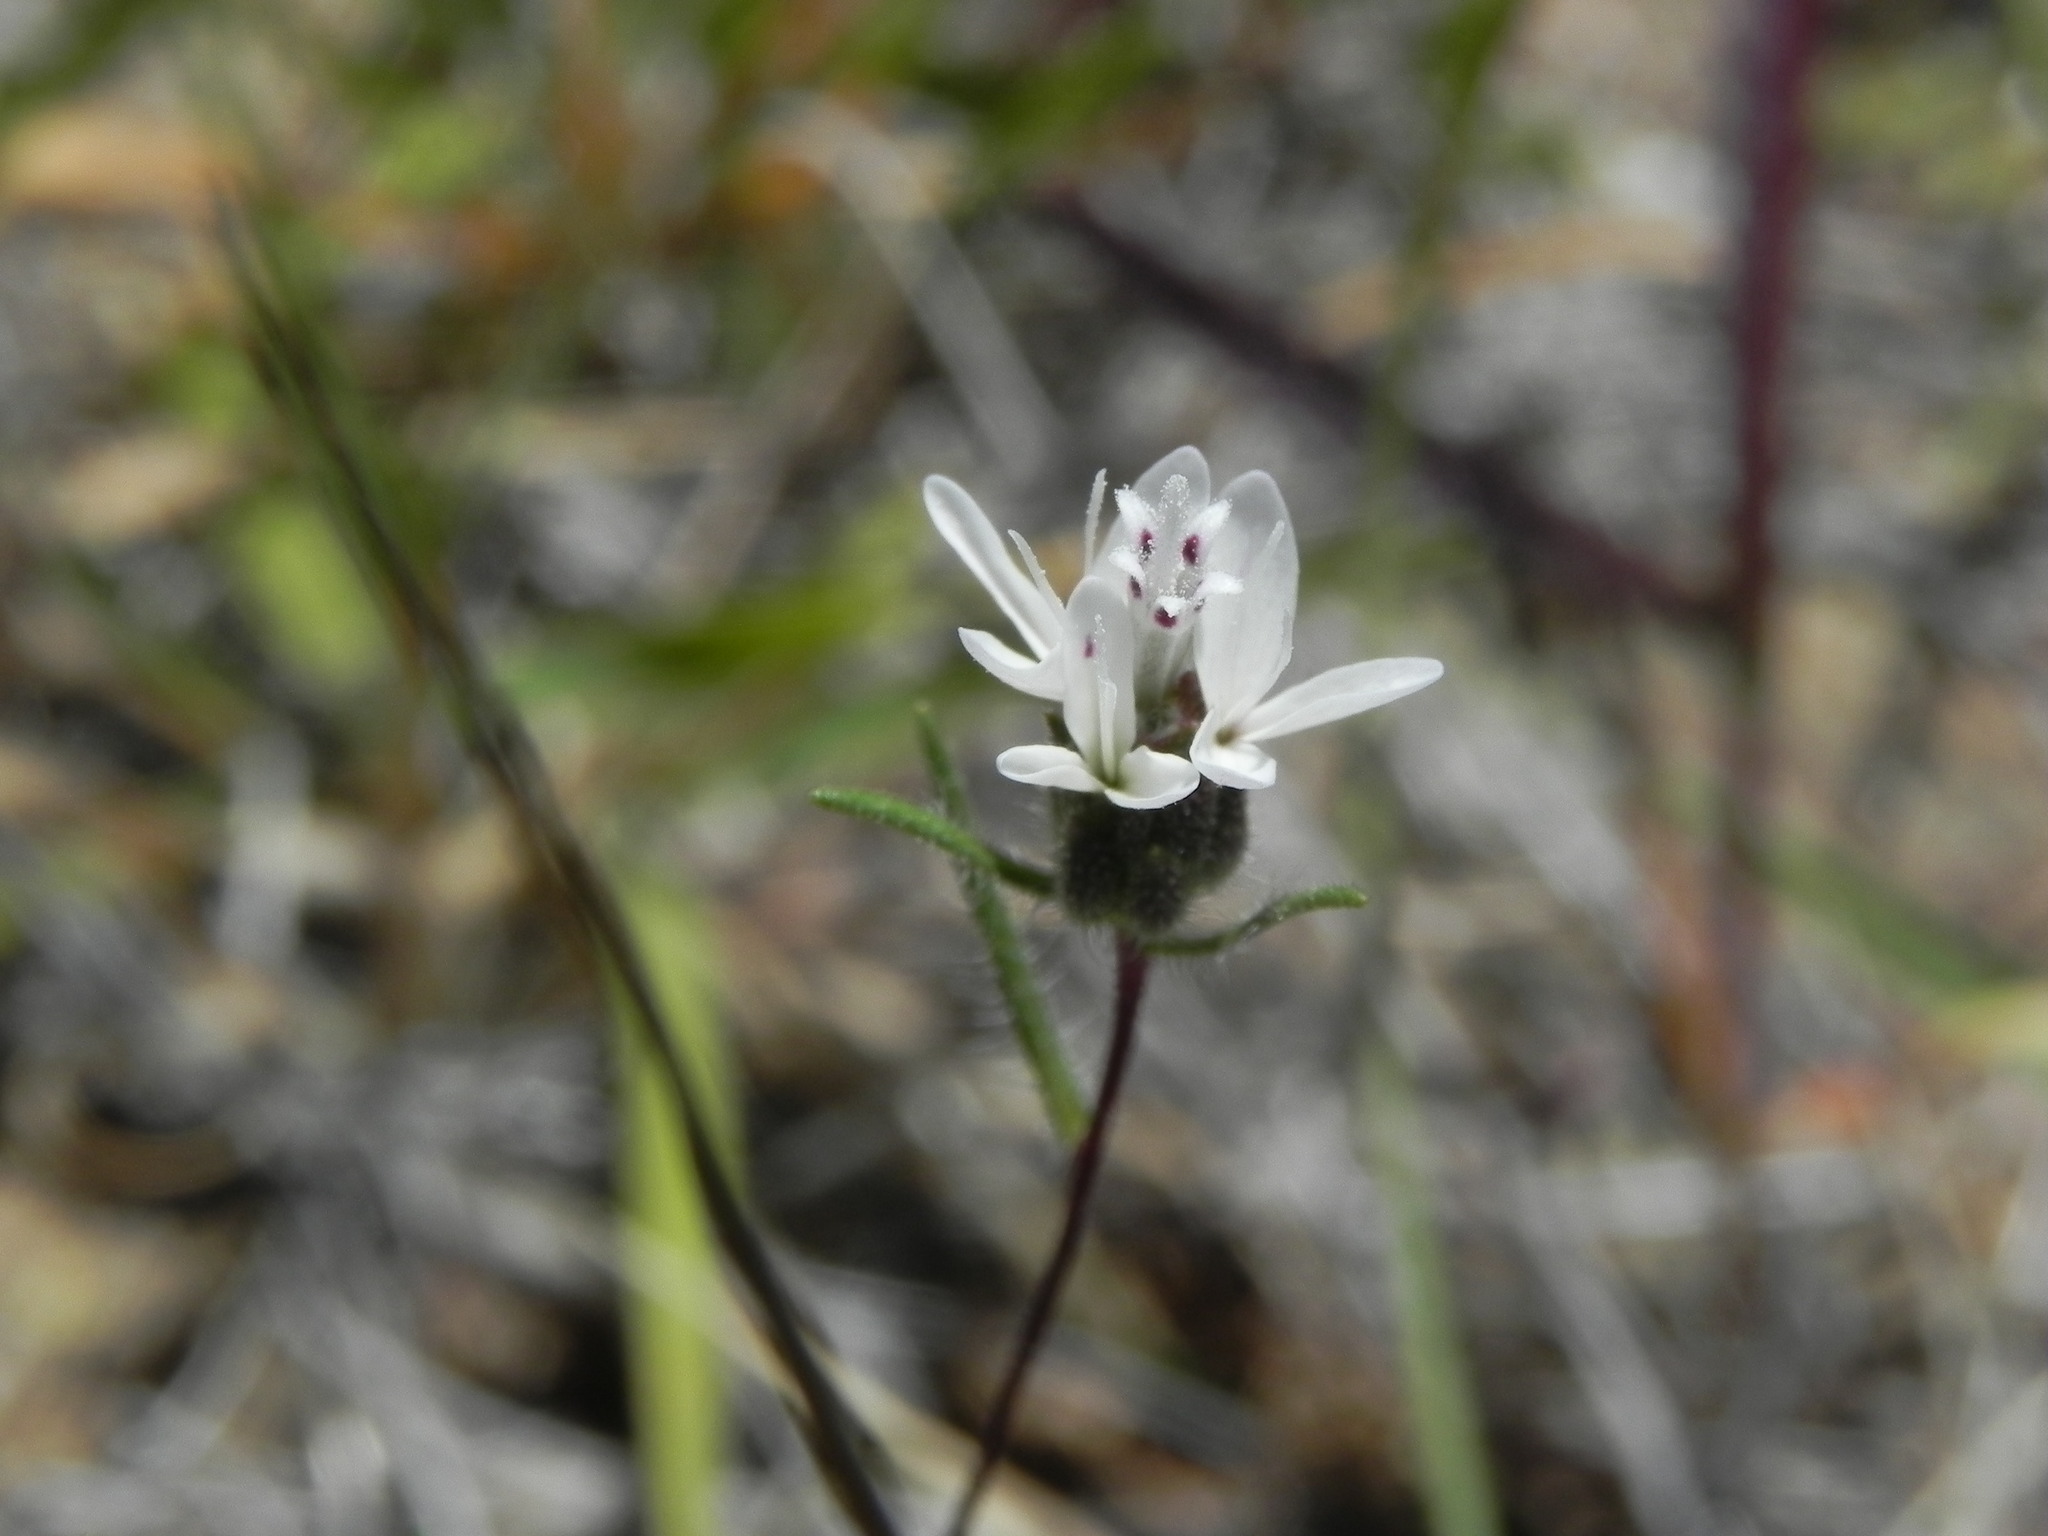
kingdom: Plantae
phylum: Tracheophyta
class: Magnoliopsida
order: Asterales
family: Asteraceae
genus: Osmadenia
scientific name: Osmadenia tenella
